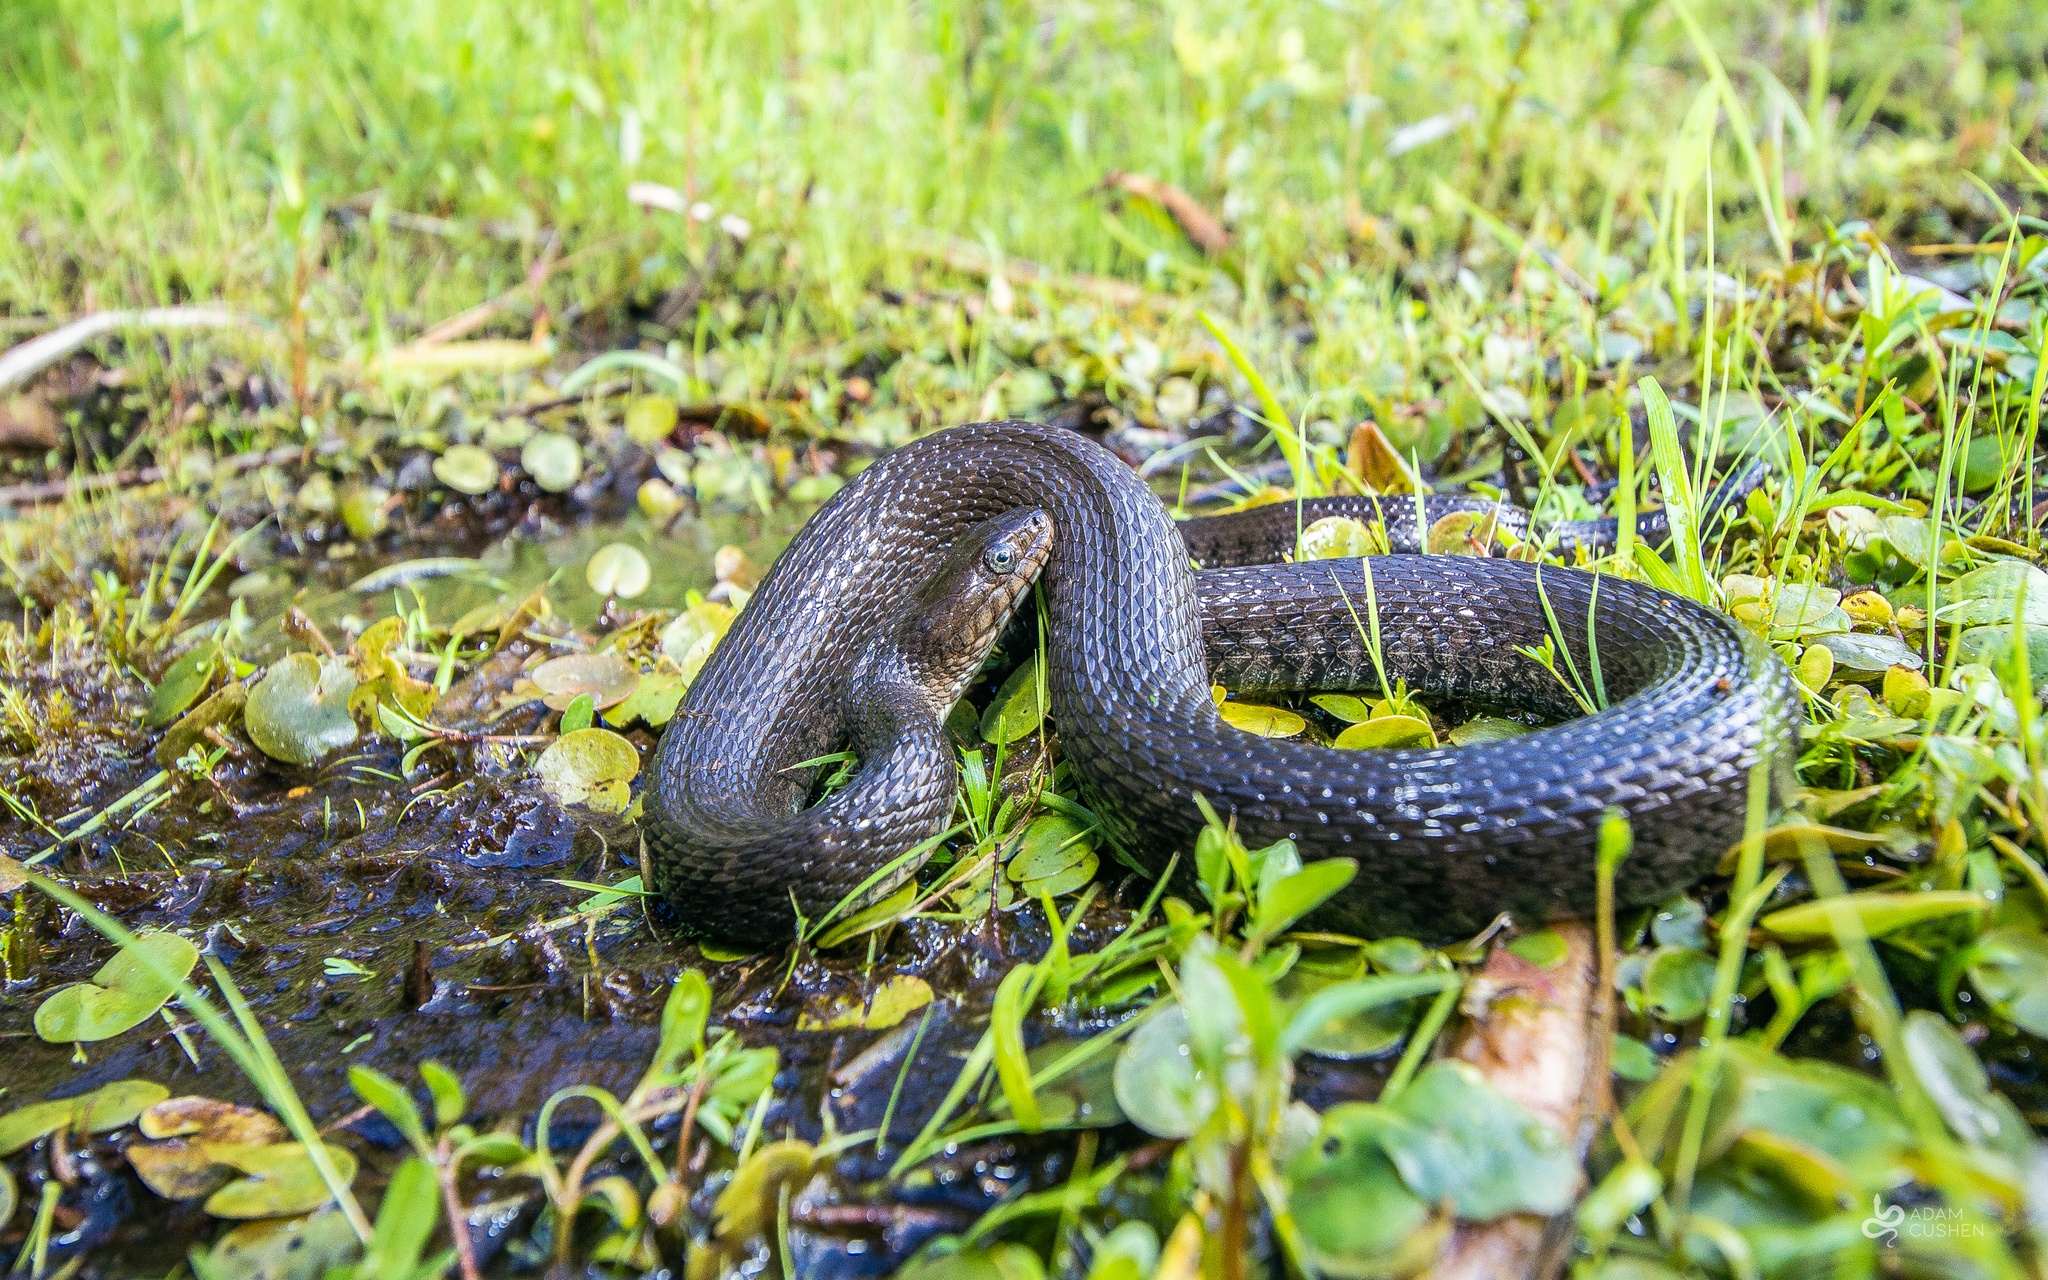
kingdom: Animalia
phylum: Chordata
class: Squamata
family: Colubridae
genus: Nerodia
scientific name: Nerodia sipedon
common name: Northern water snake
